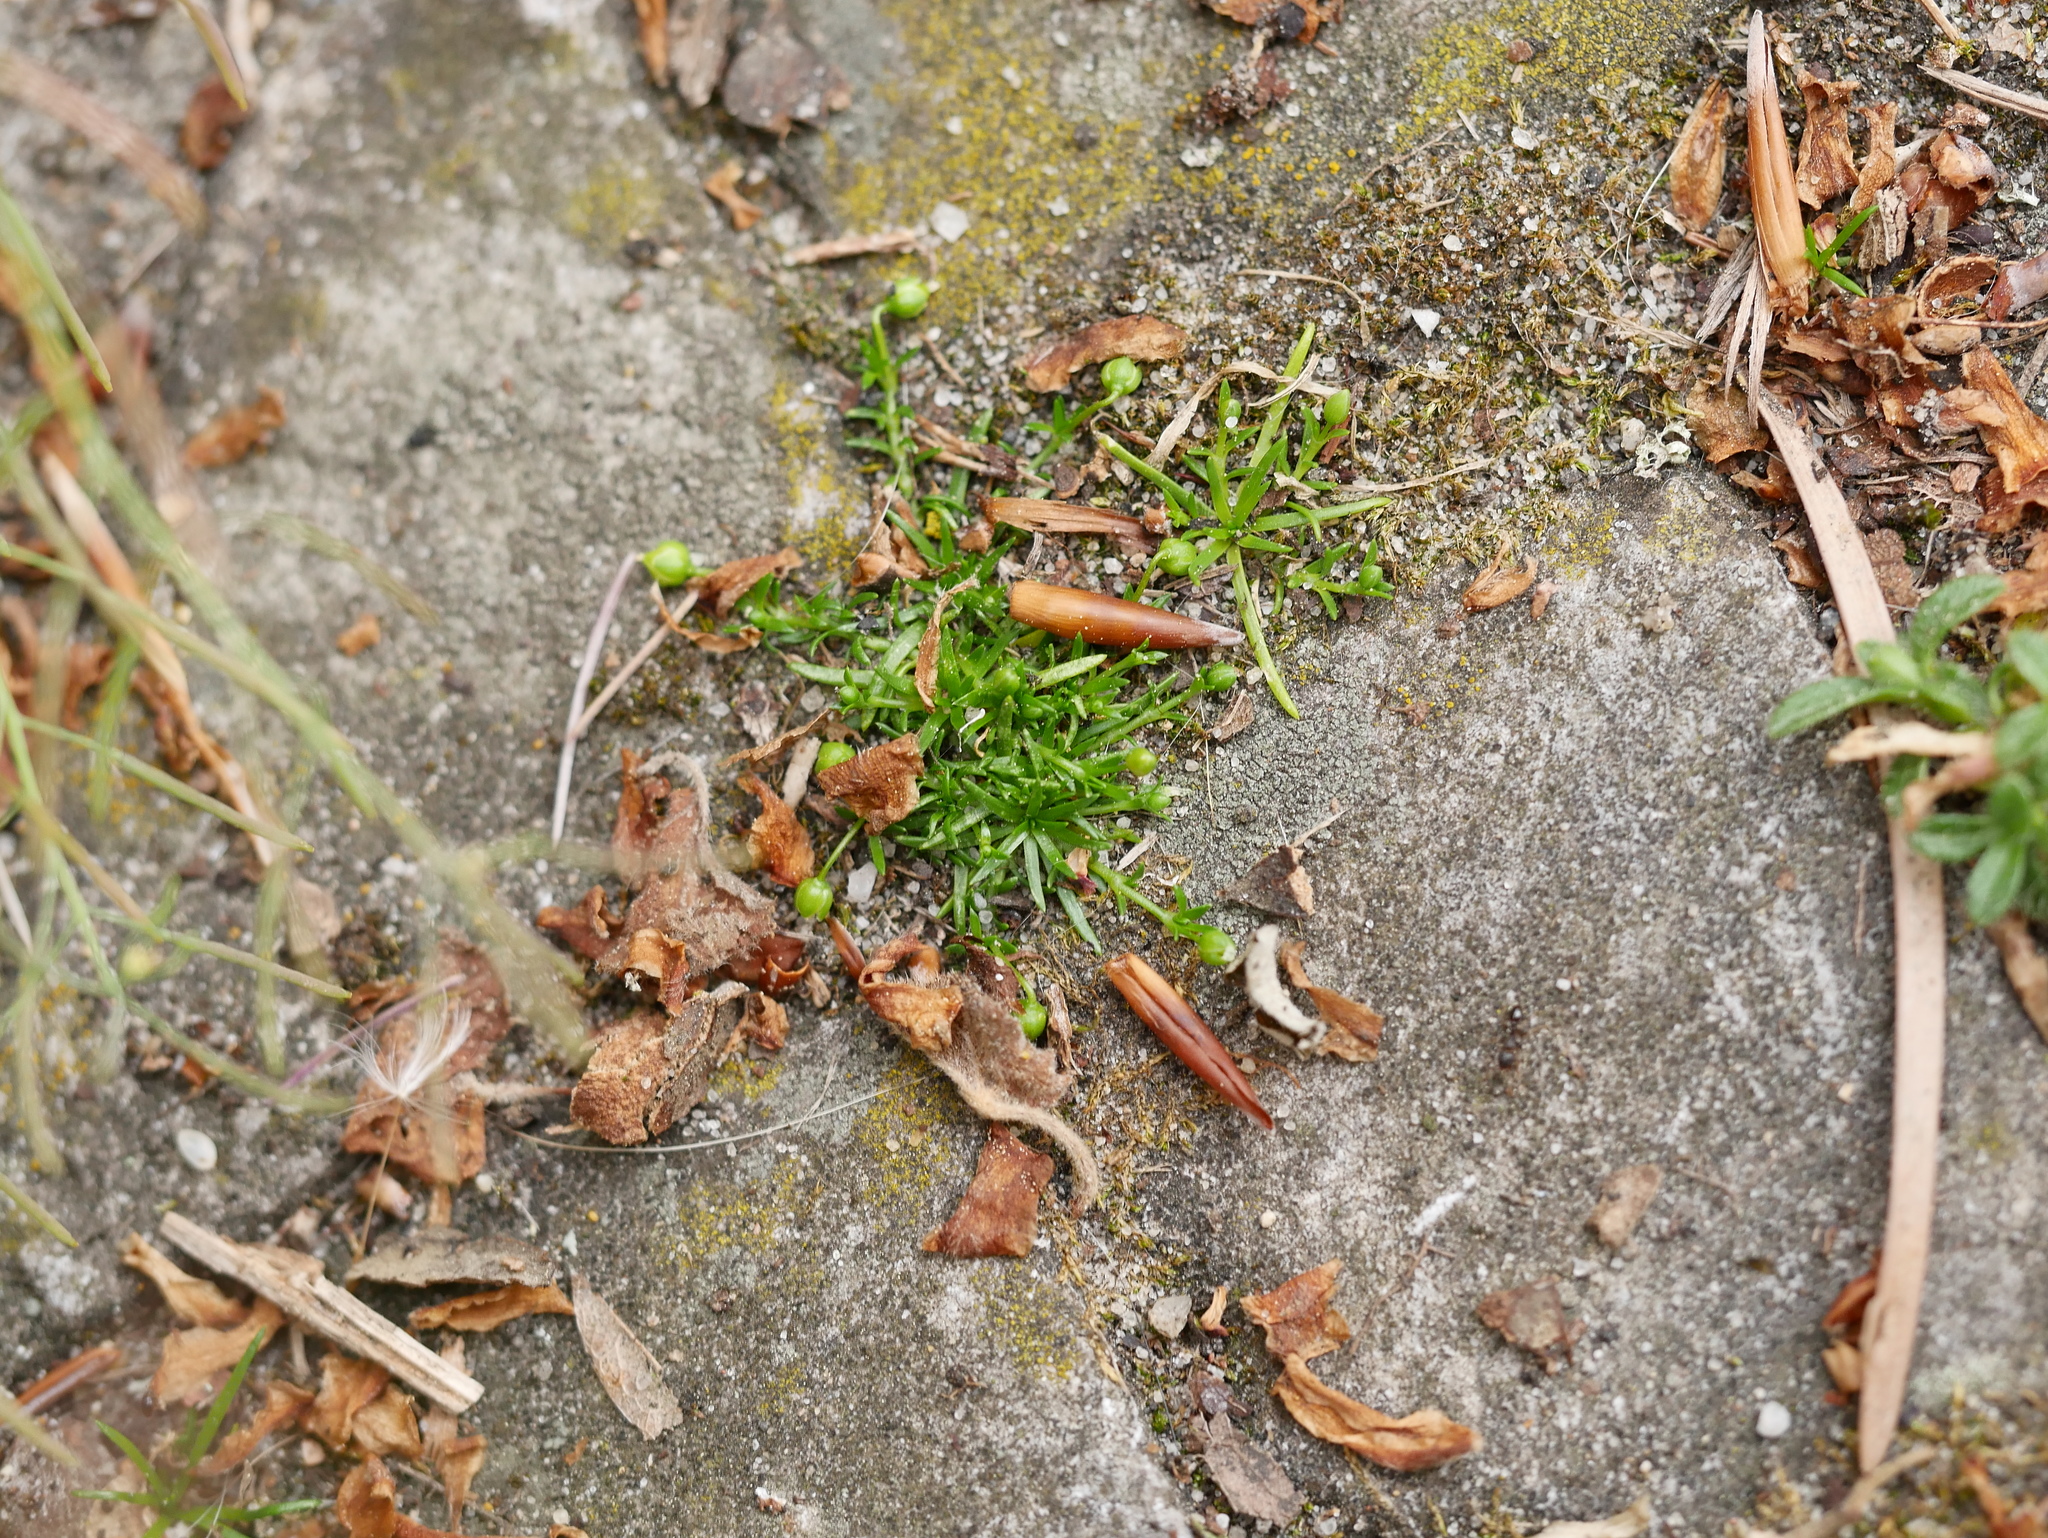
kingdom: Plantae
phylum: Tracheophyta
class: Magnoliopsida
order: Caryophyllales
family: Caryophyllaceae
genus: Sagina
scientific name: Sagina procumbens
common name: Procumbent pearlwort
